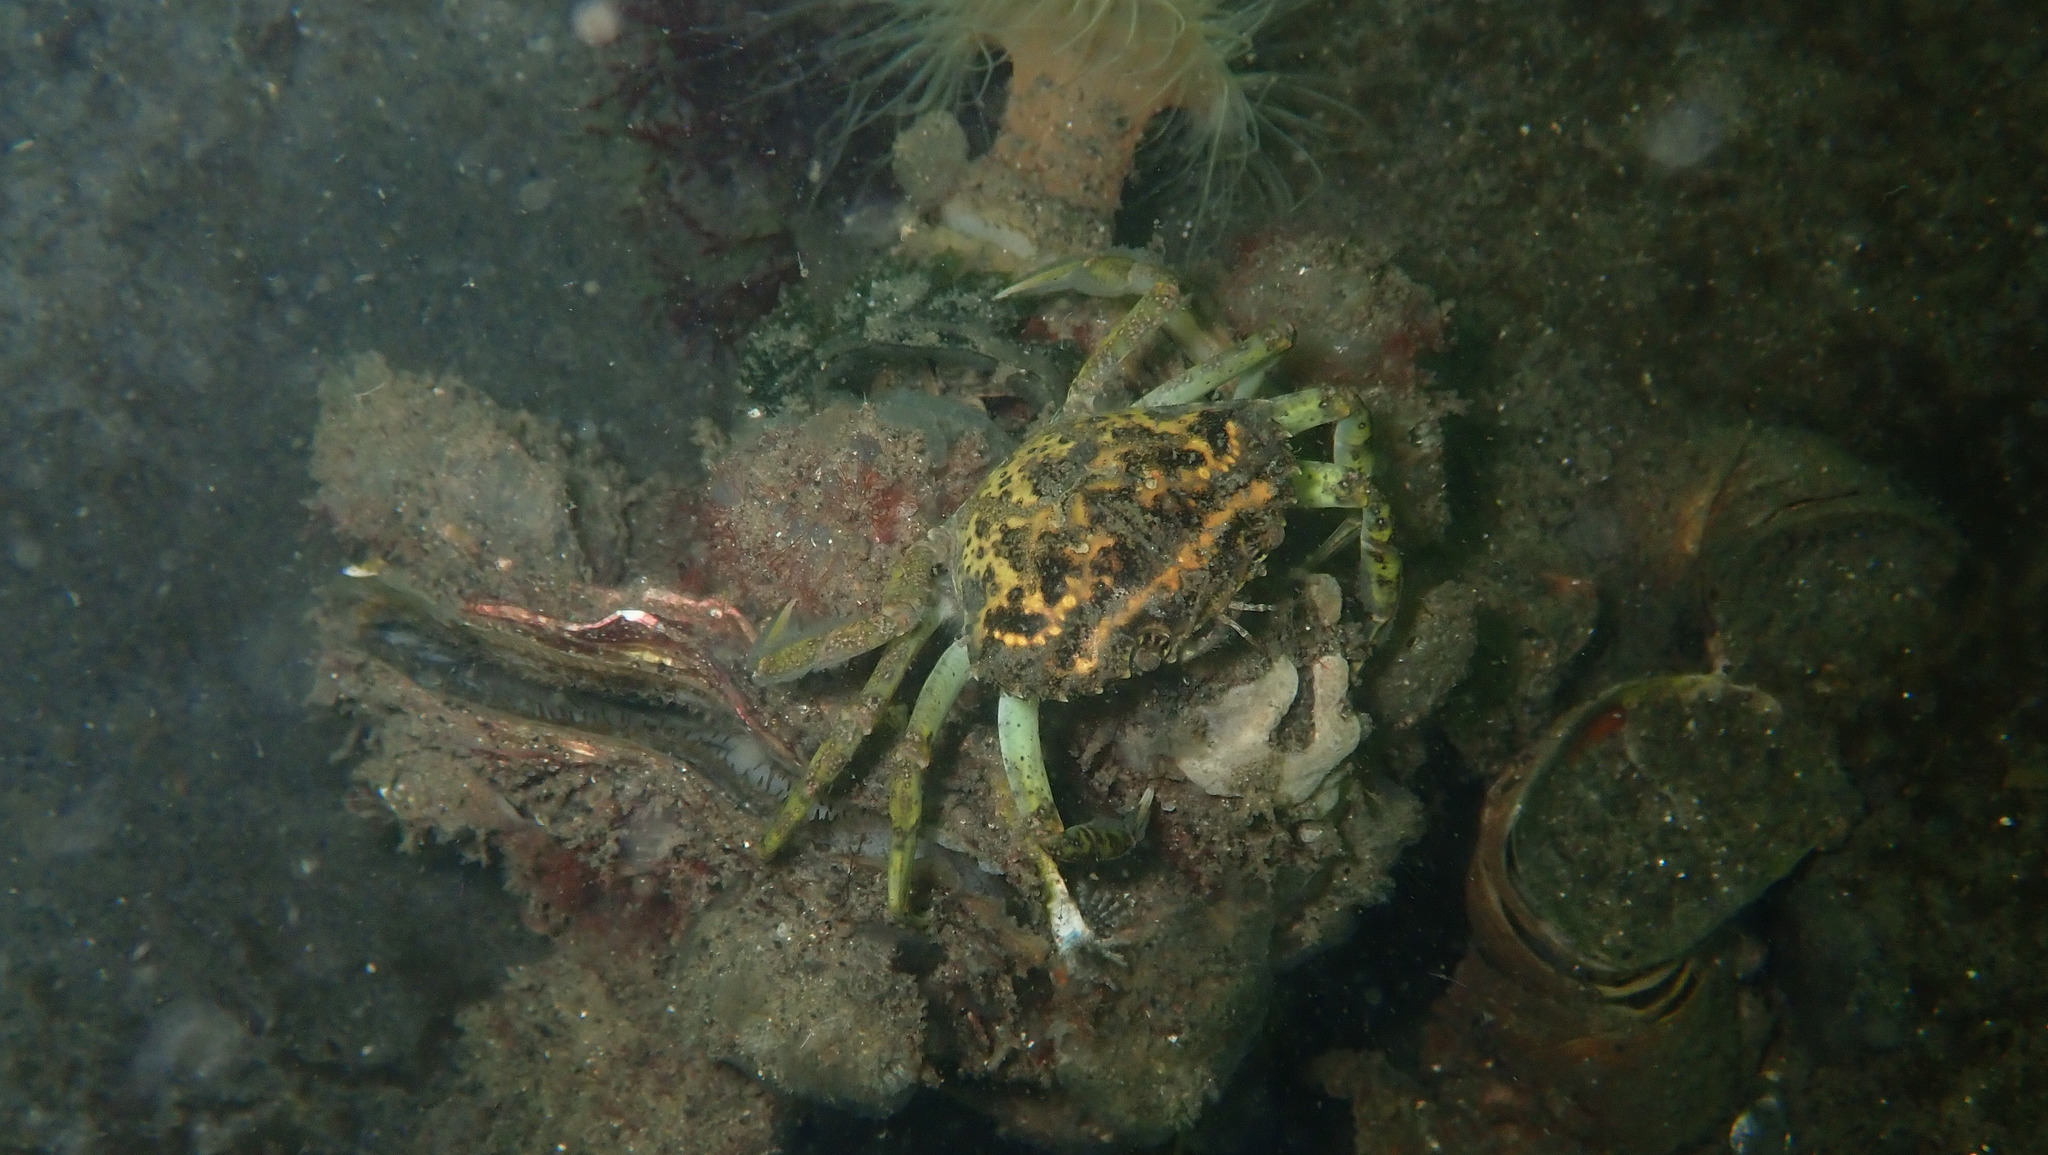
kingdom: Animalia
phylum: Arthropoda
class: Malacostraca
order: Decapoda
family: Carcinidae
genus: Carcinus
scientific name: Carcinus maenas
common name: European green crab
